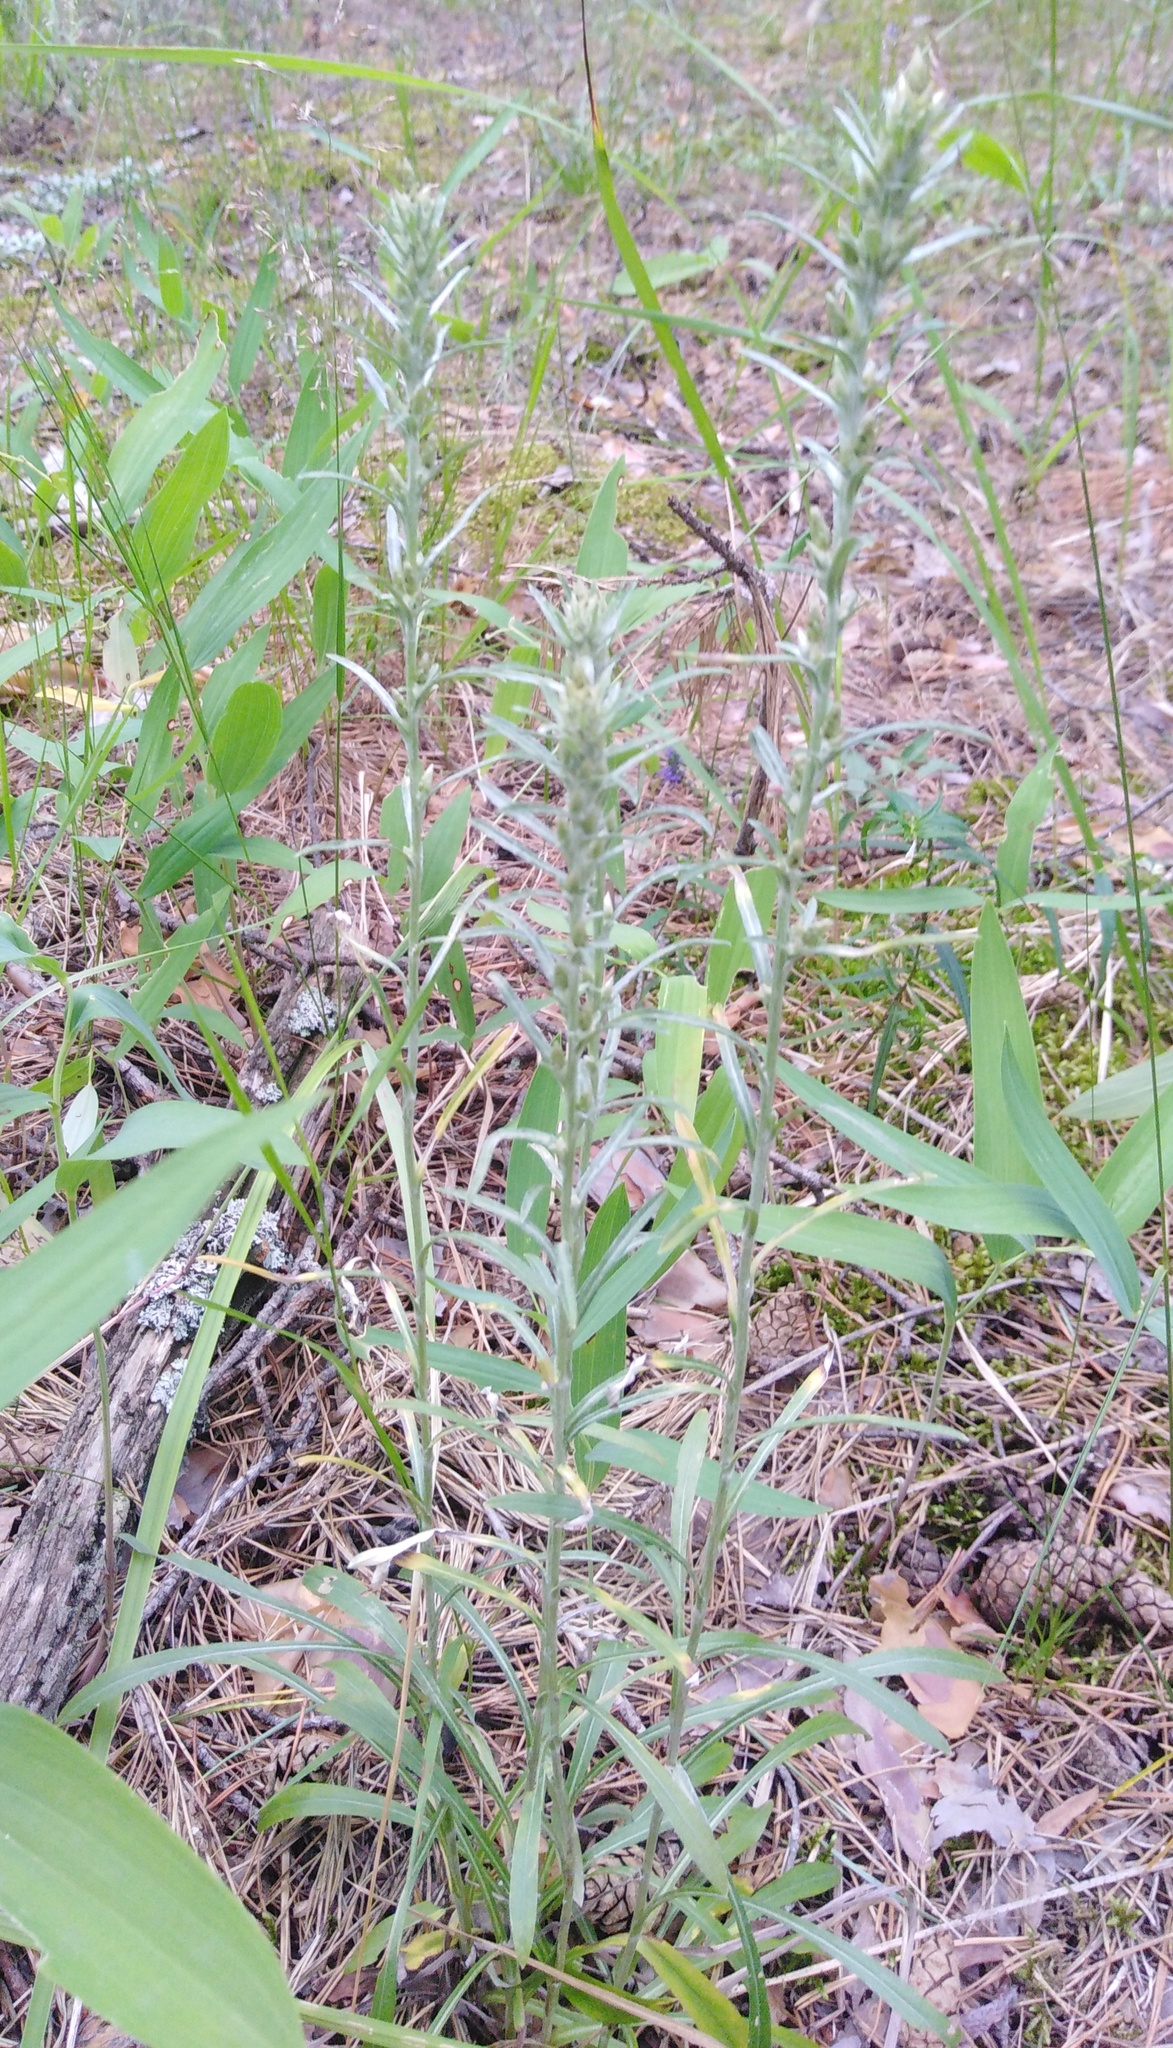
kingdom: Plantae
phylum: Tracheophyta
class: Magnoliopsida
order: Asterales
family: Asteraceae
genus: Omalotheca
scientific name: Omalotheca sylvatica
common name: Heath cudweed
